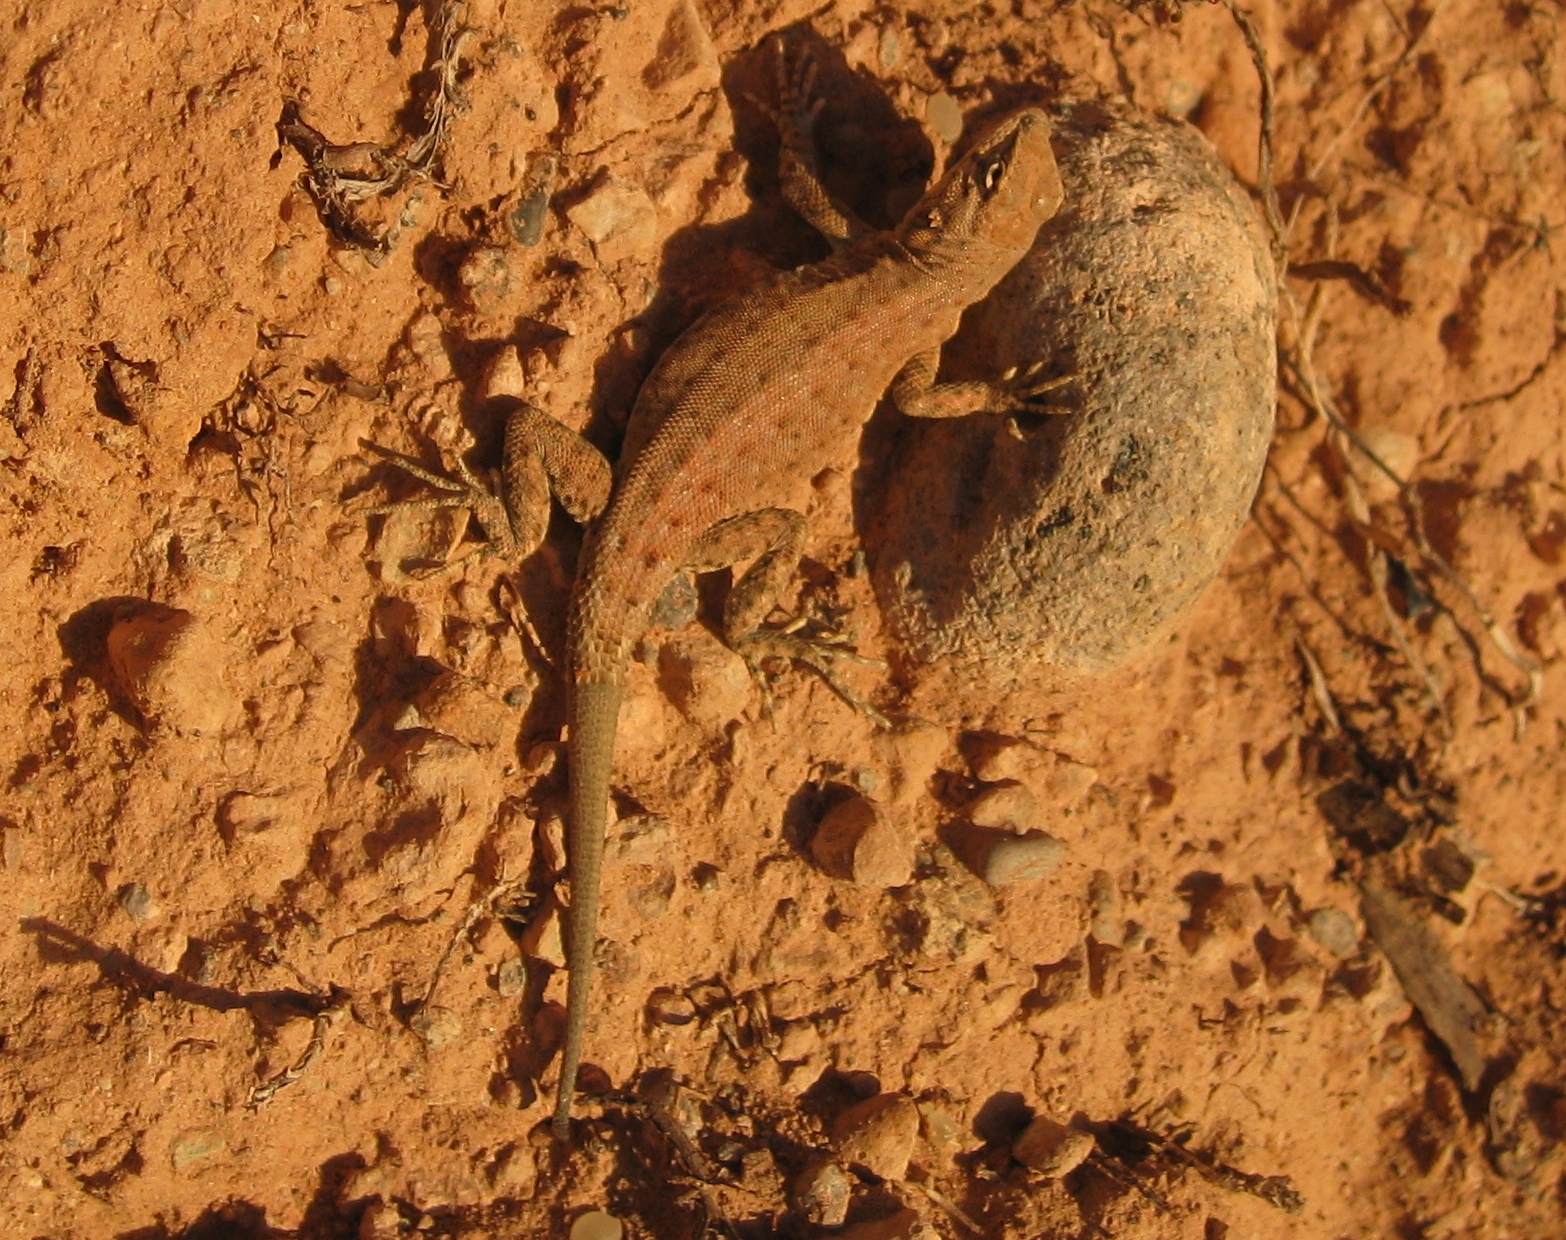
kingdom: Animalia
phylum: Chordata
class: Squamata
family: Phrynosomatidae
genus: Uta
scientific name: Uta stansburiana
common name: Side-blotched lizard
